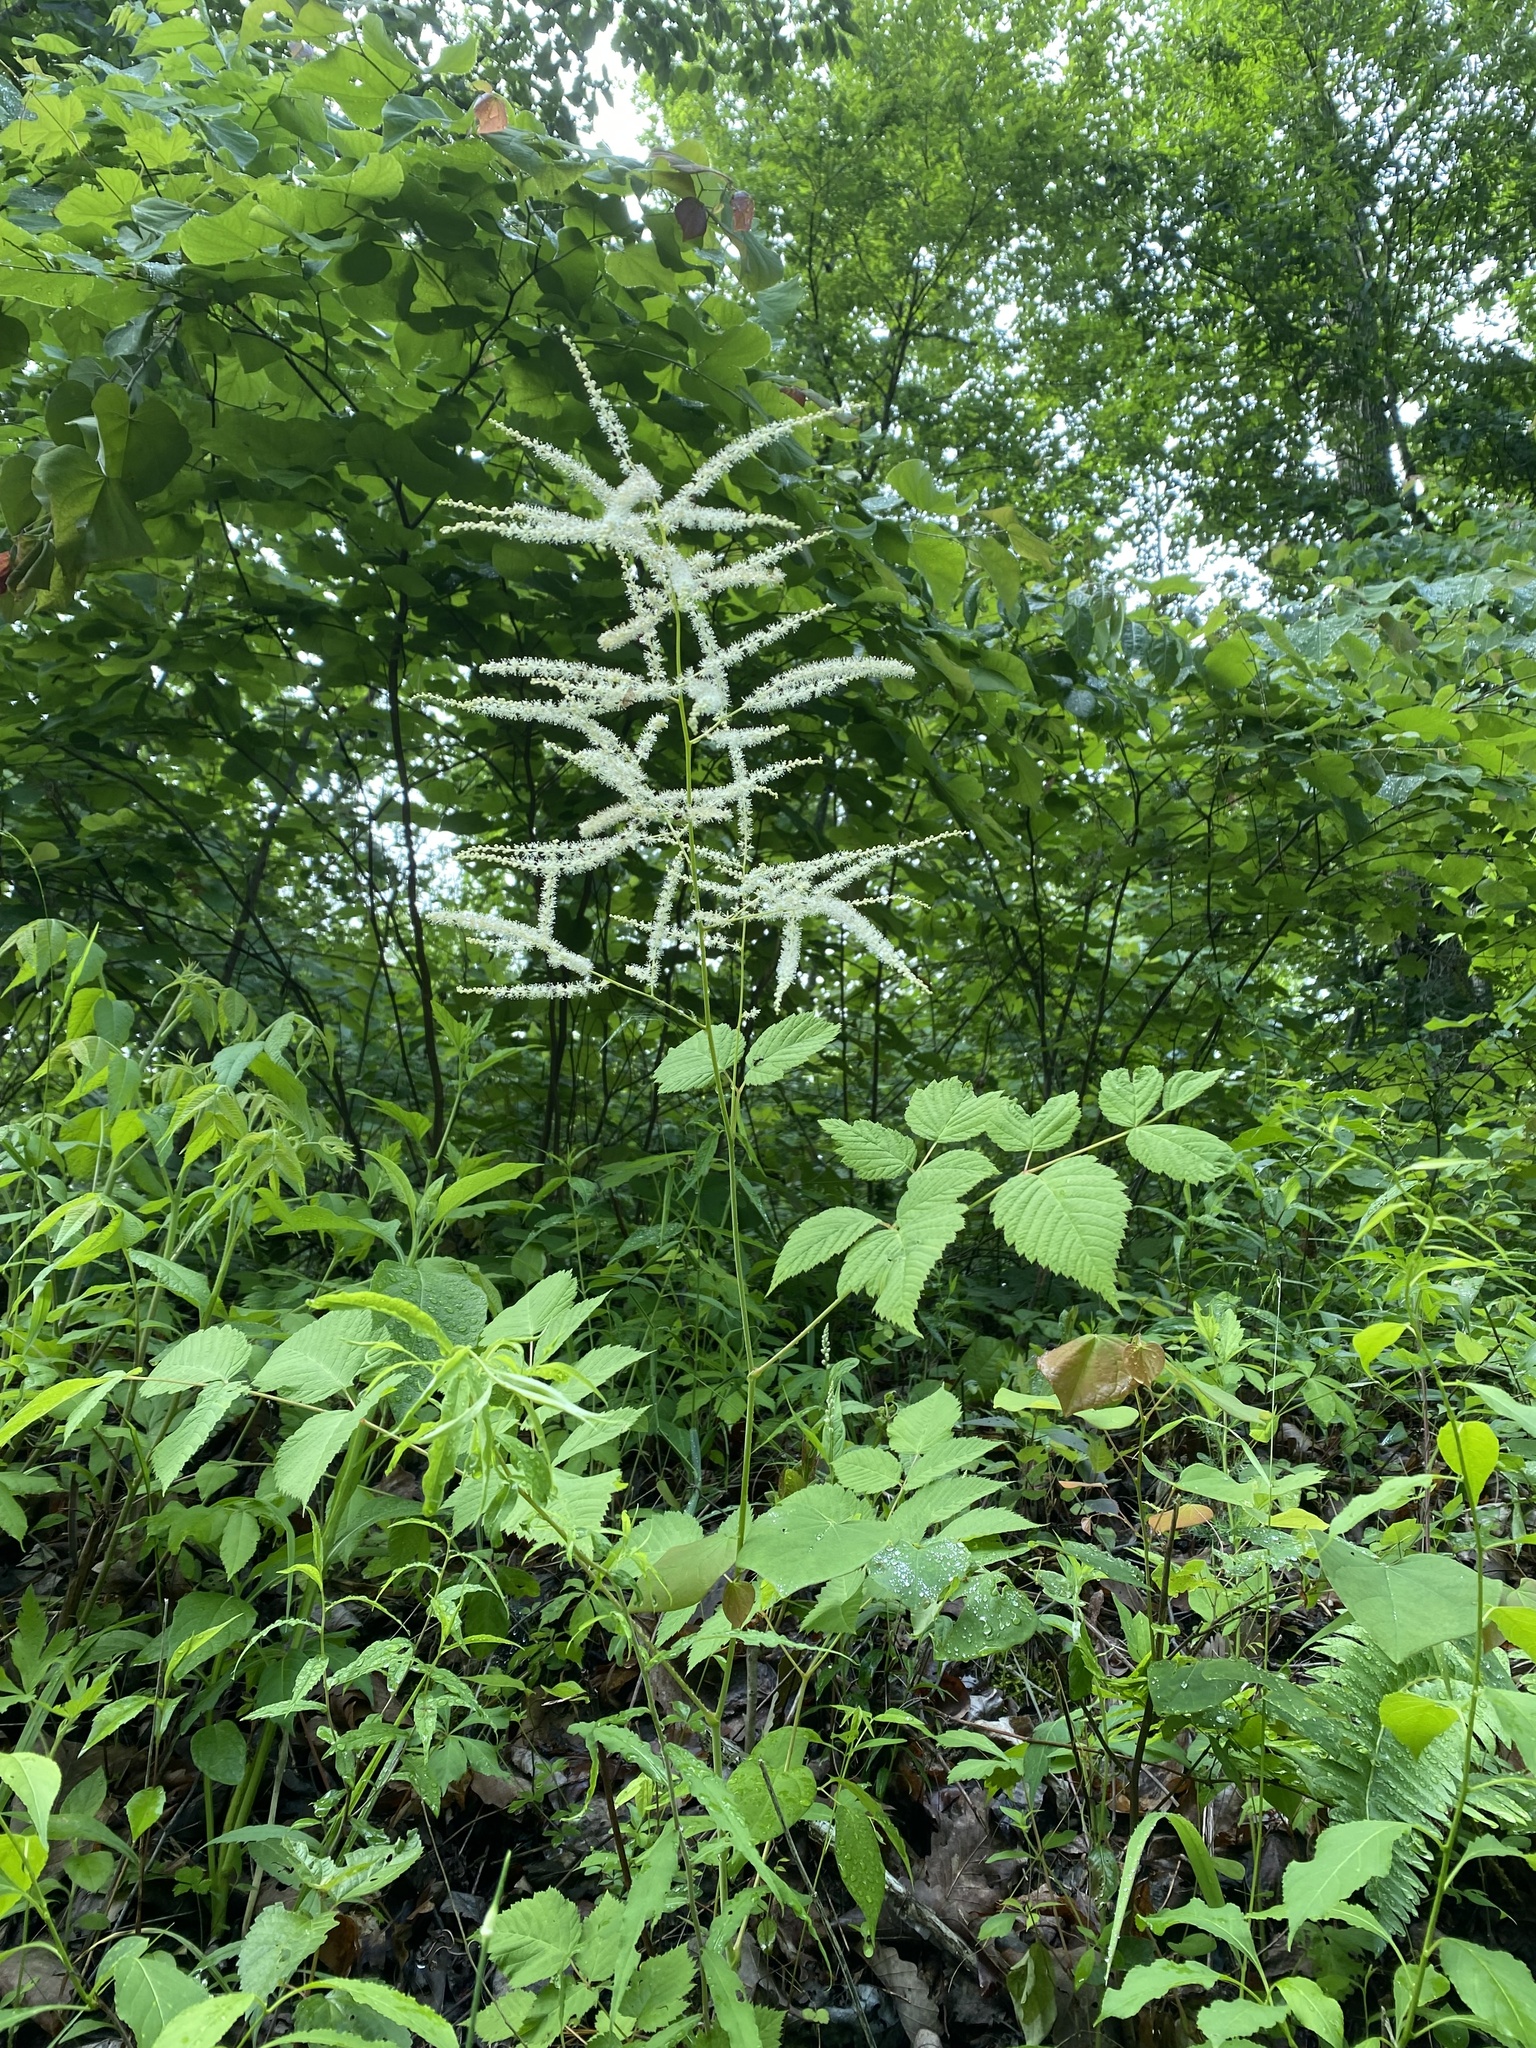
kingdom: Plantae
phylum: Tracheophyta
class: Magnoliopsida
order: Rosales
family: Rosaceae
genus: Aruncus
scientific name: Aruncus dioicus
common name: Buck's-beard
